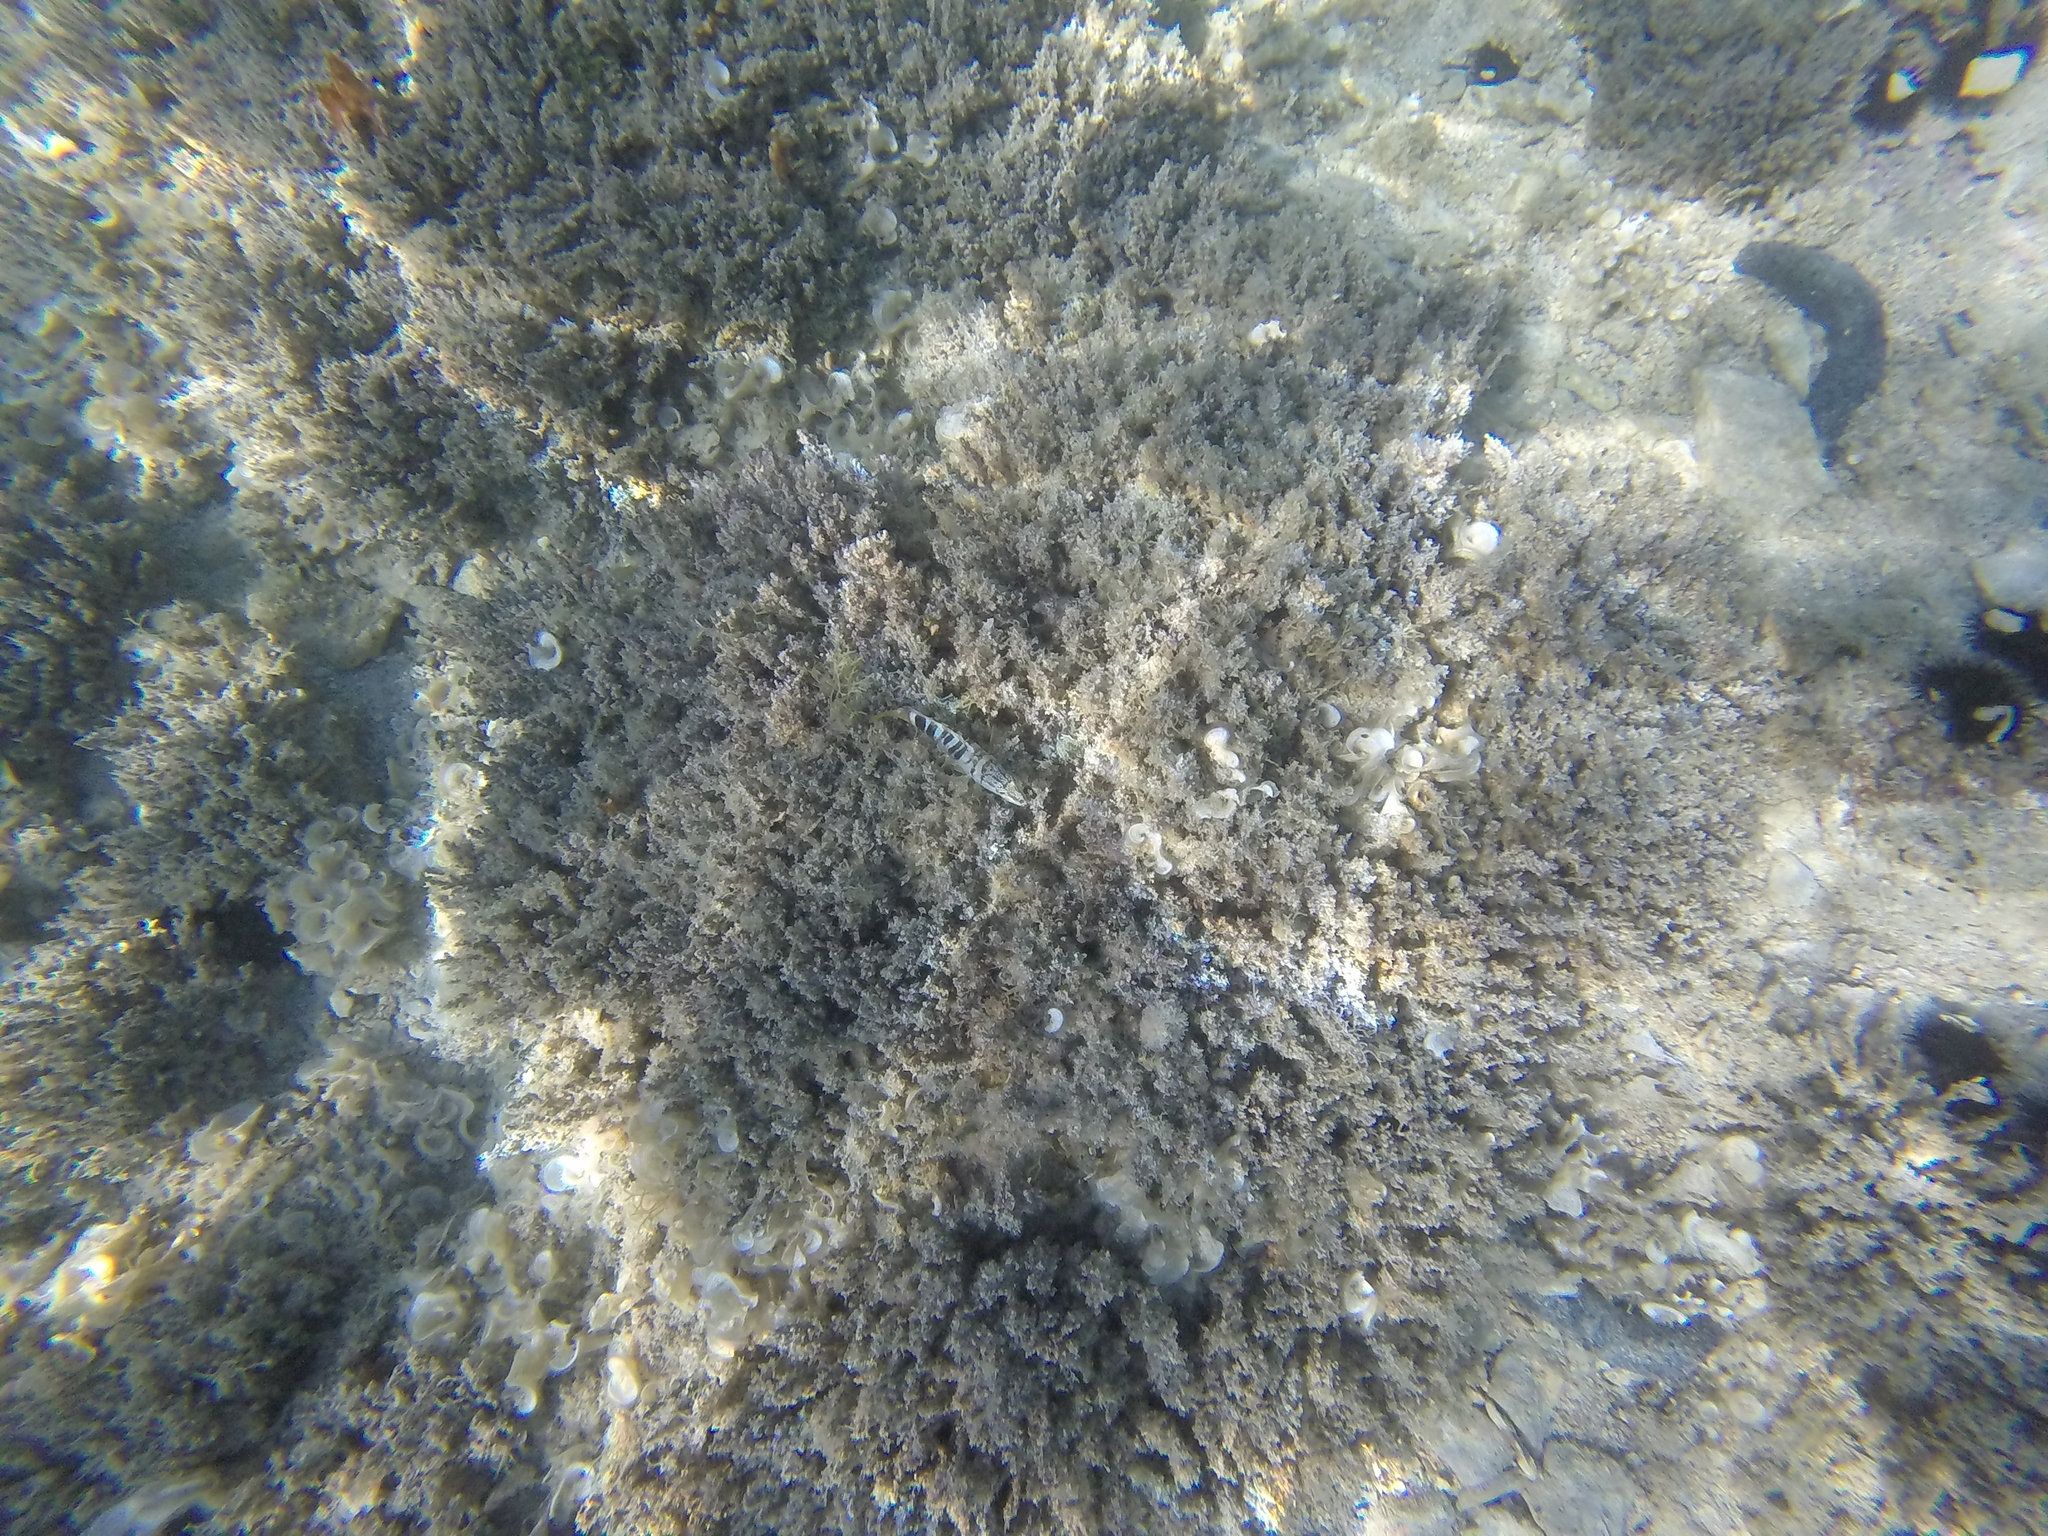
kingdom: Animalia
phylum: Chordata
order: Perciformes
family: Serranidae
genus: Serranus
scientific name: Serranus scriba
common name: Painted comber
